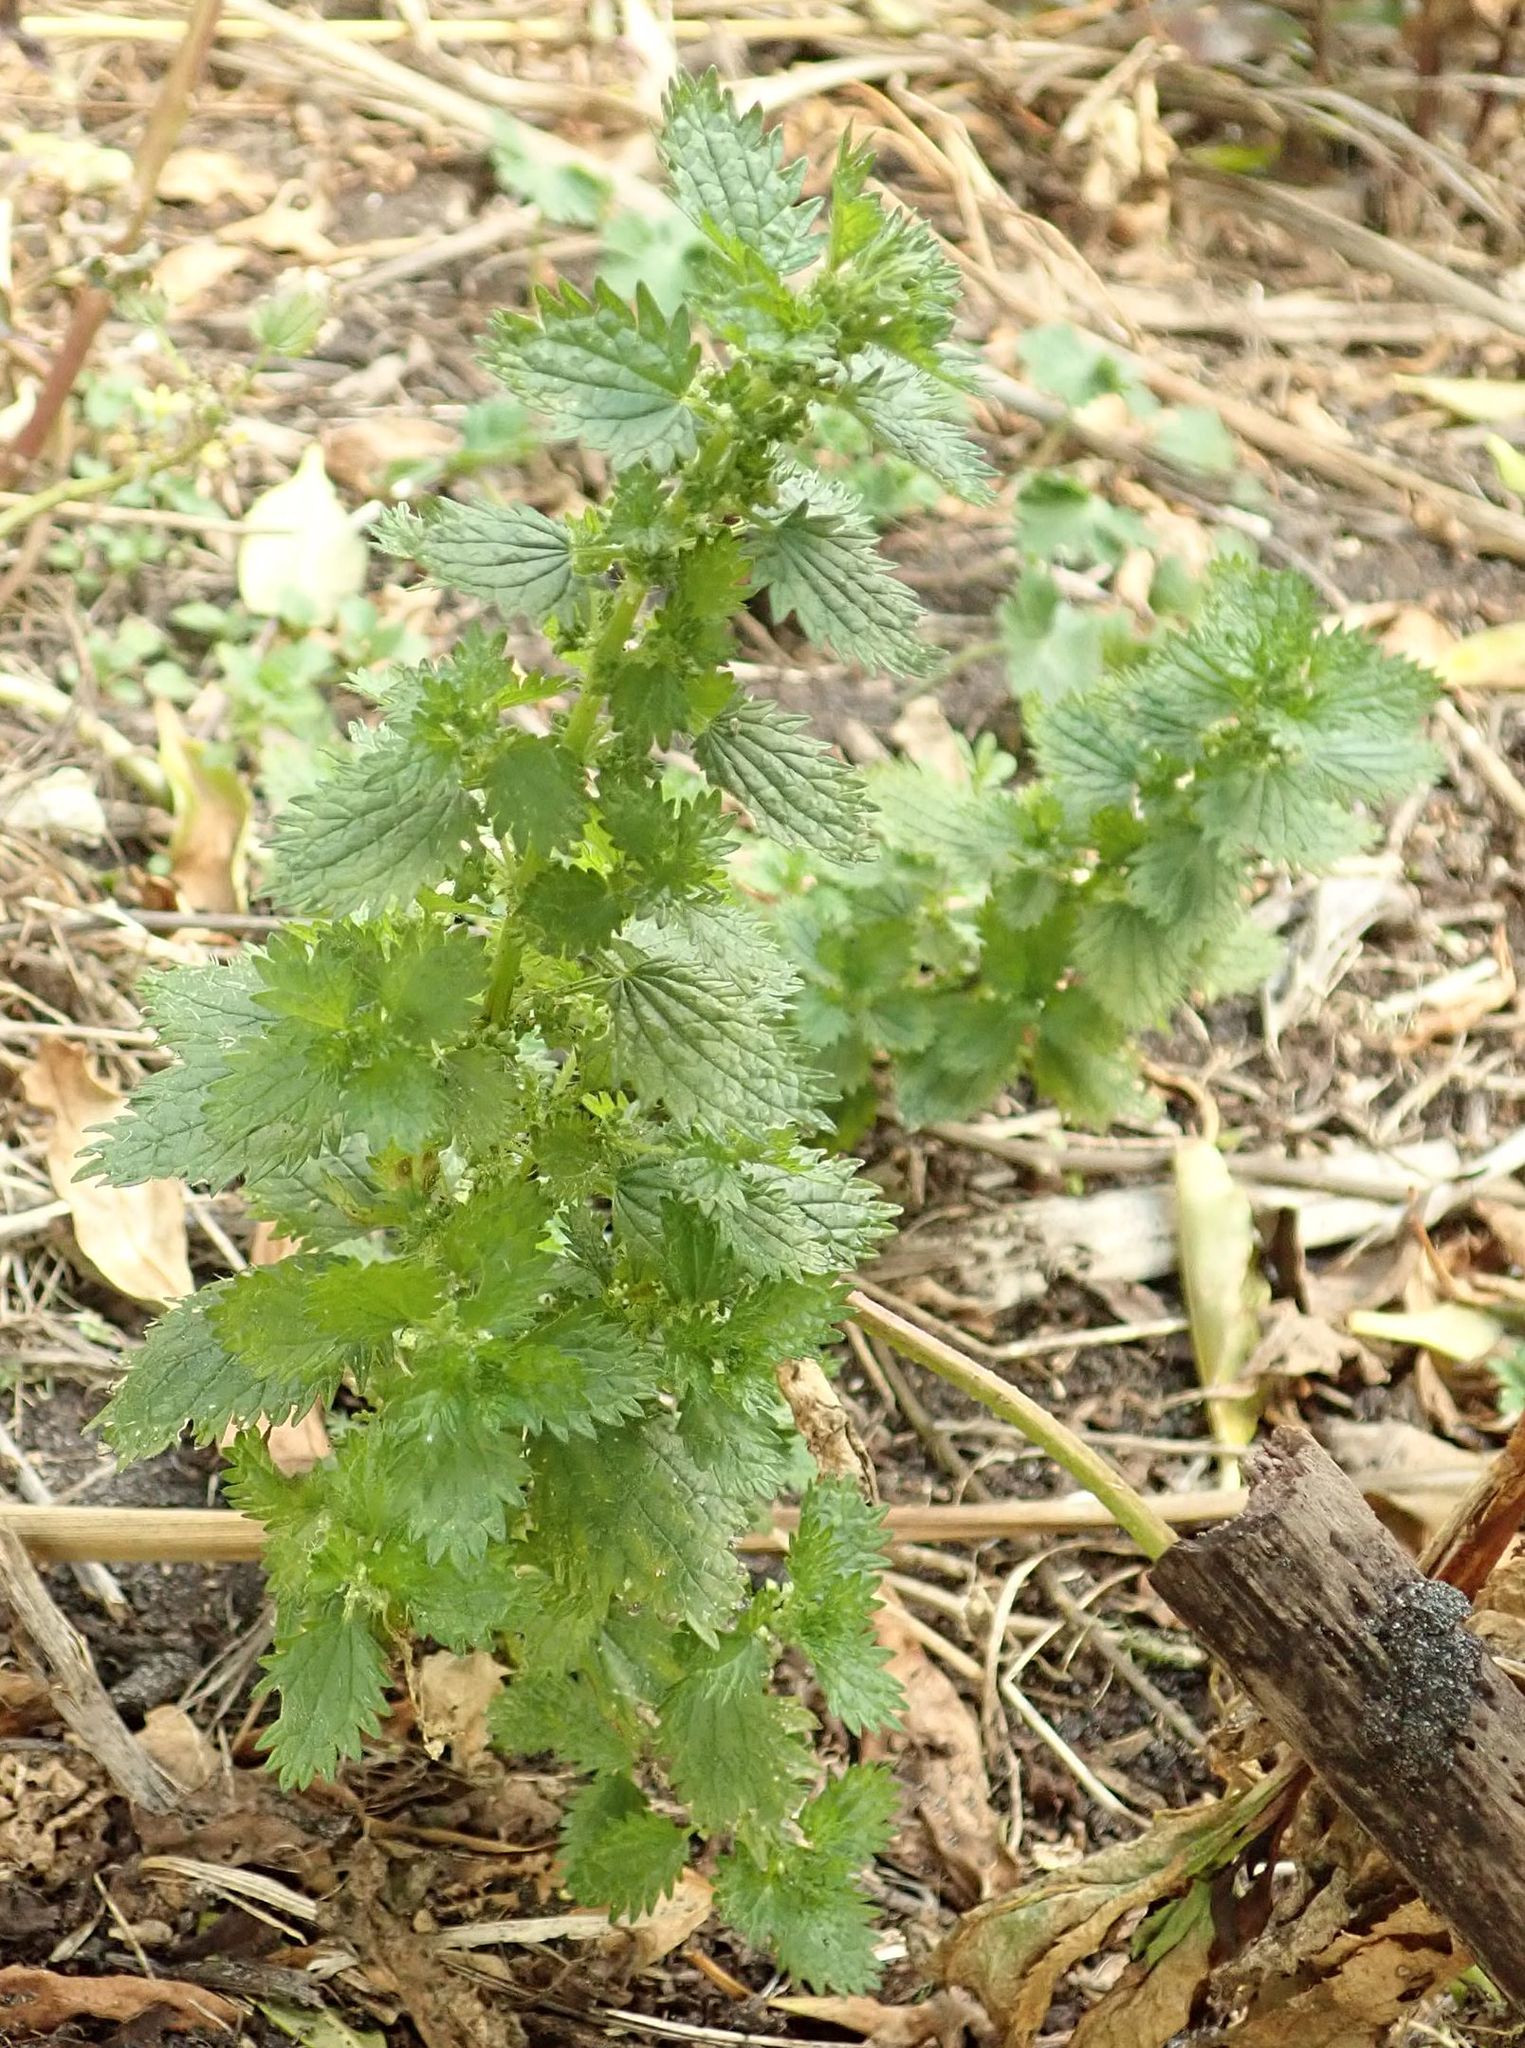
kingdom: Plantae
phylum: Tracheophyta
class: Magnoliopsida
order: Rosales
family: Urticaceae
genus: Urtica
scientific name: Urtica urens
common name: Dwarf nettle
